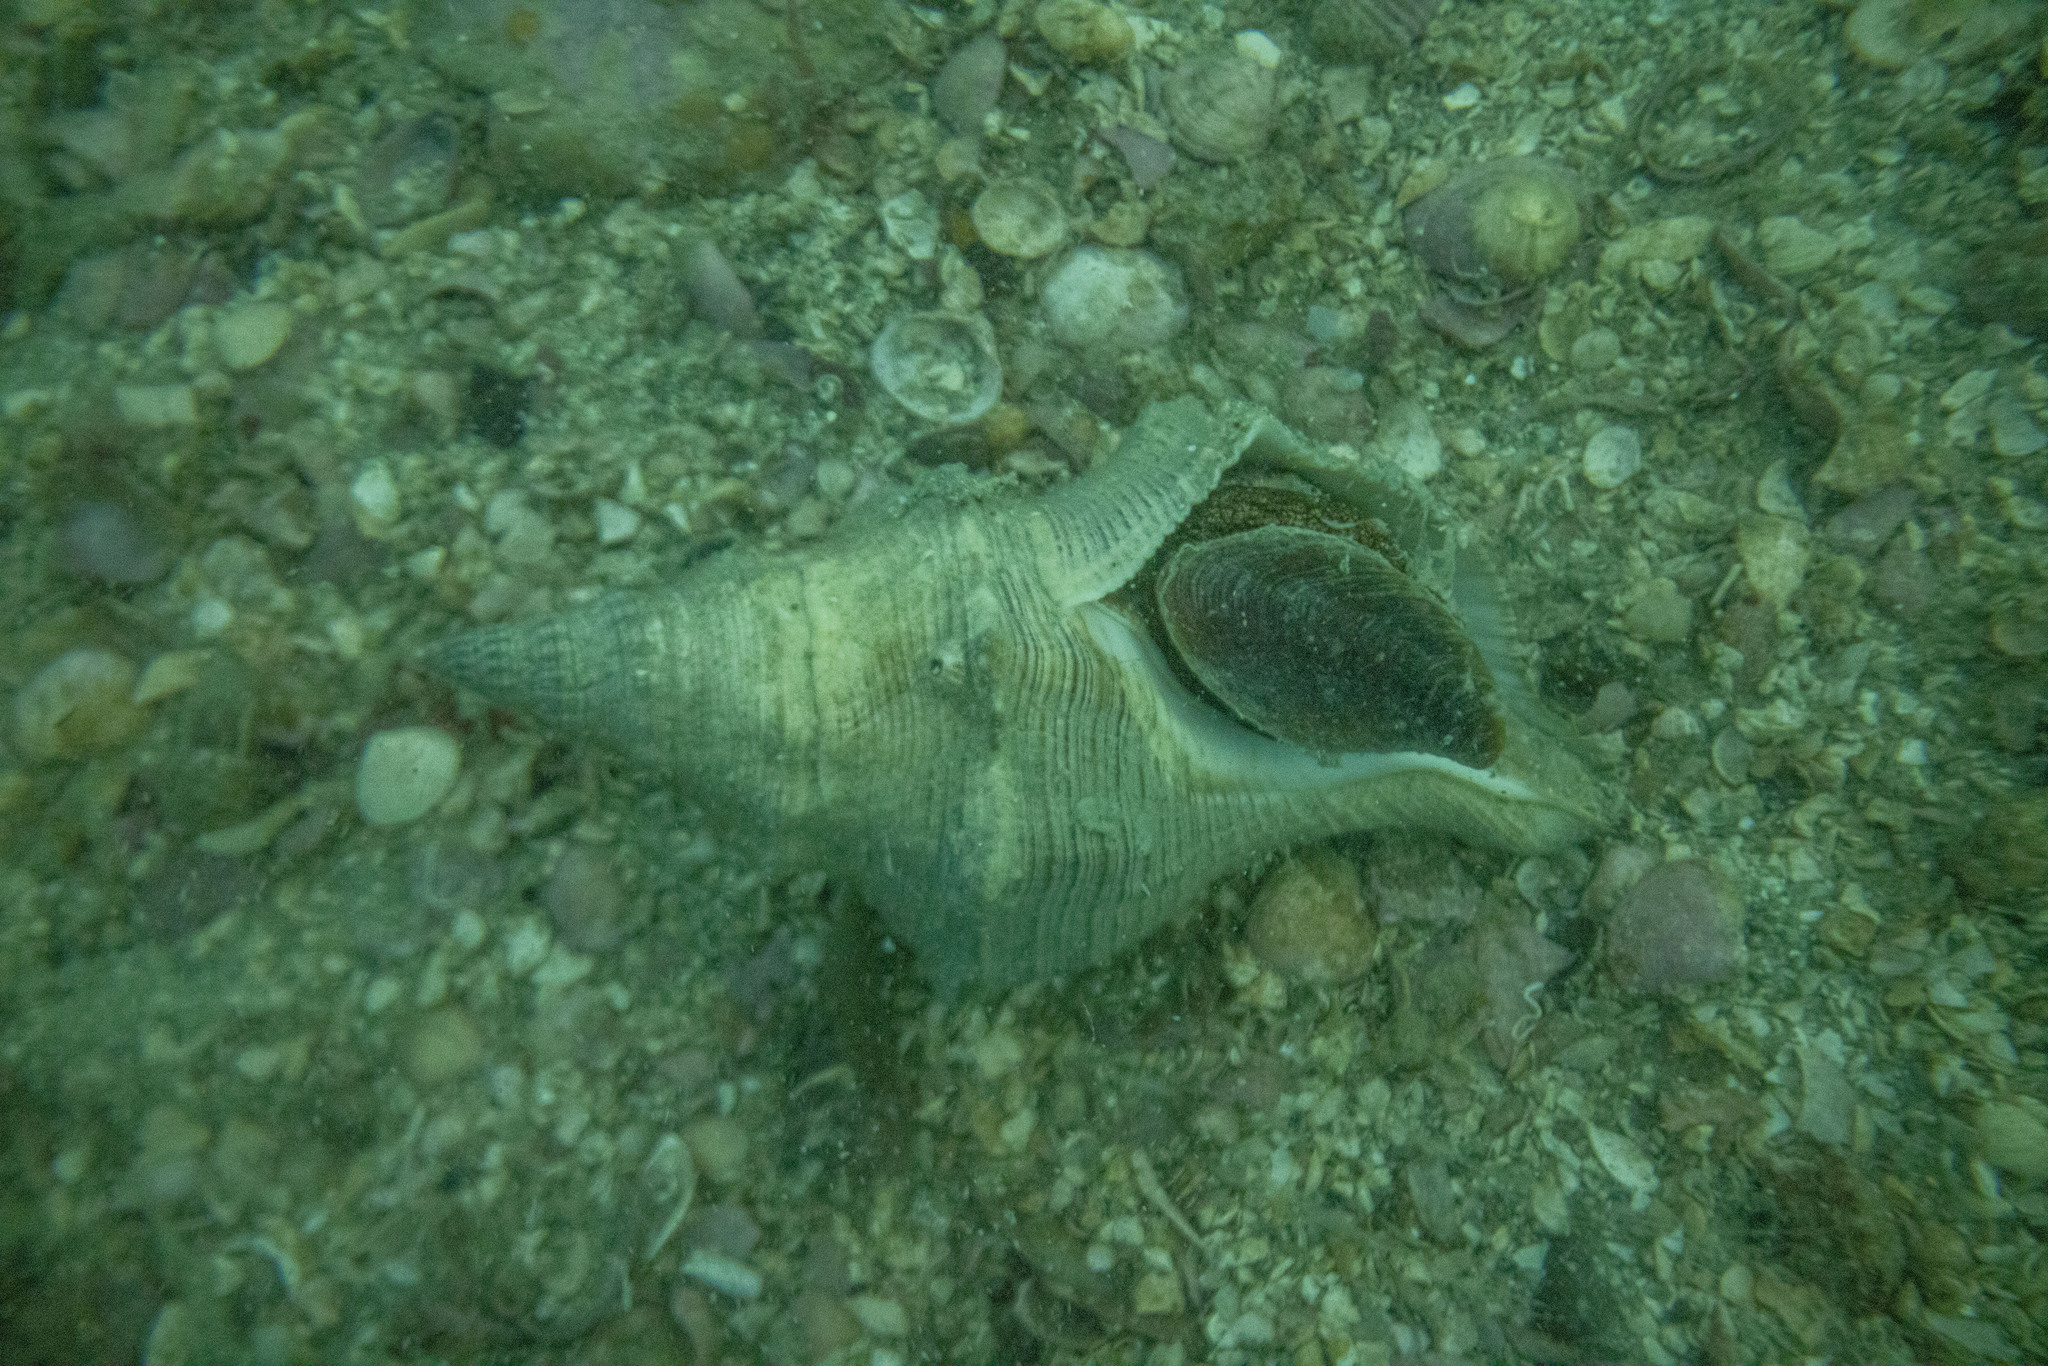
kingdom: Animalia
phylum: Mollusca
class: Gastropoda
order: Neogastropoda
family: Austrosiphonidae
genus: Penion
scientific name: Penion sulcatus
